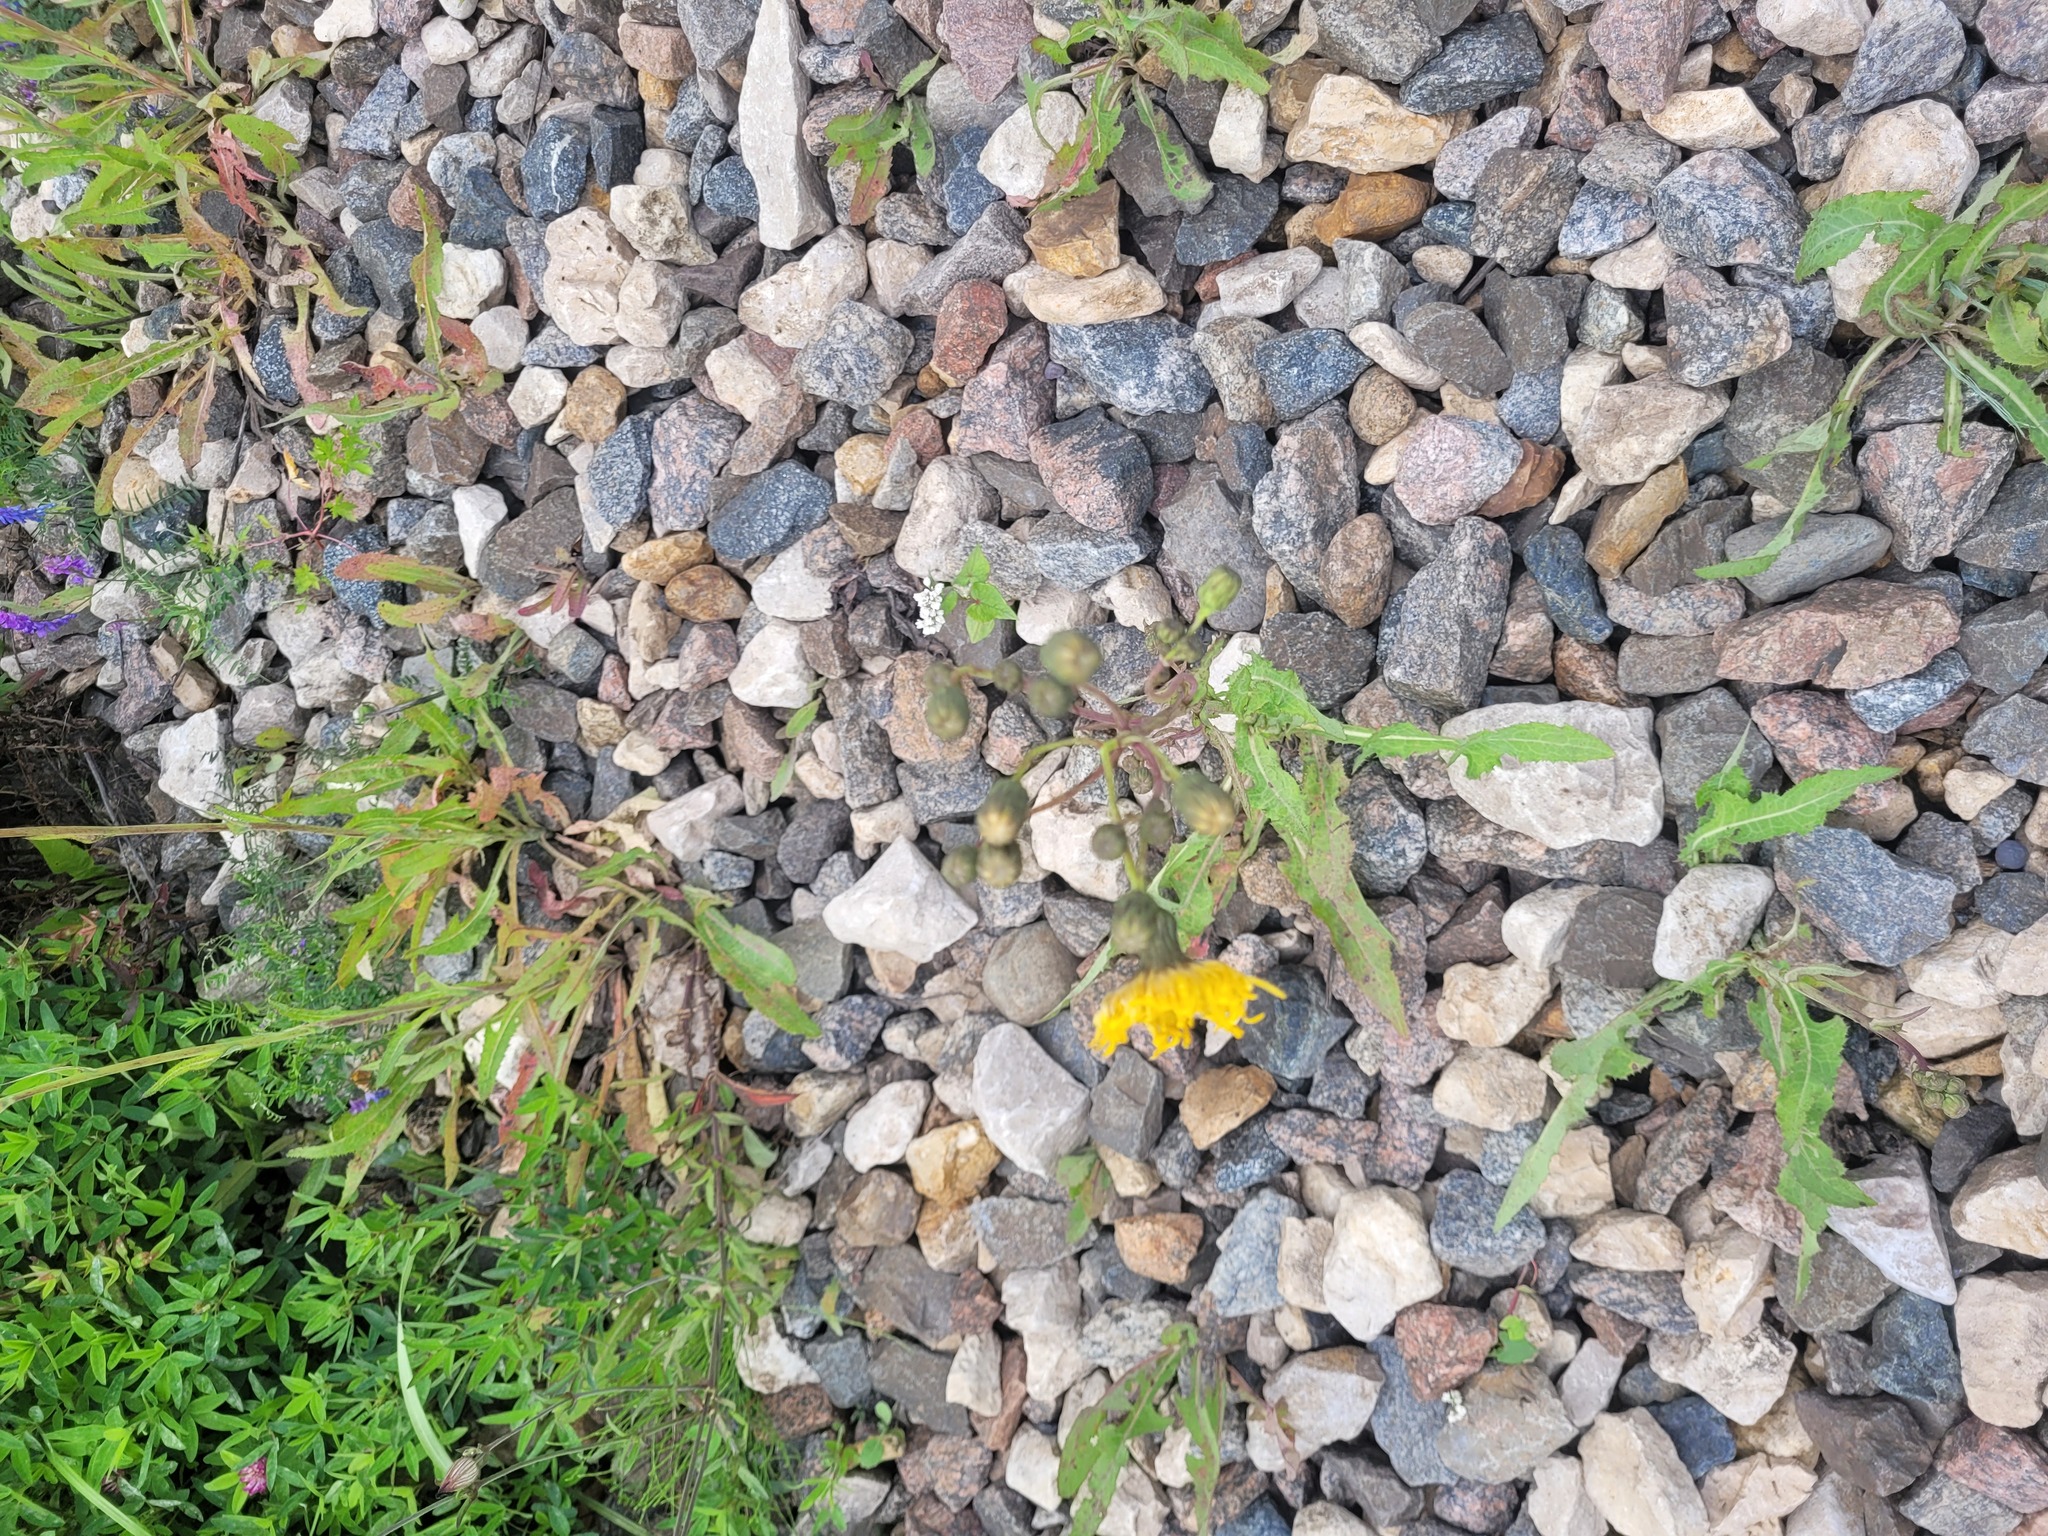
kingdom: Plantae
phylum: Tracheophyta
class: Magnoliopsida
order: Asterales
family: Asteraceae
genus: Sonchus
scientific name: Sonchus arvensis
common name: Perennial sow-thistle
